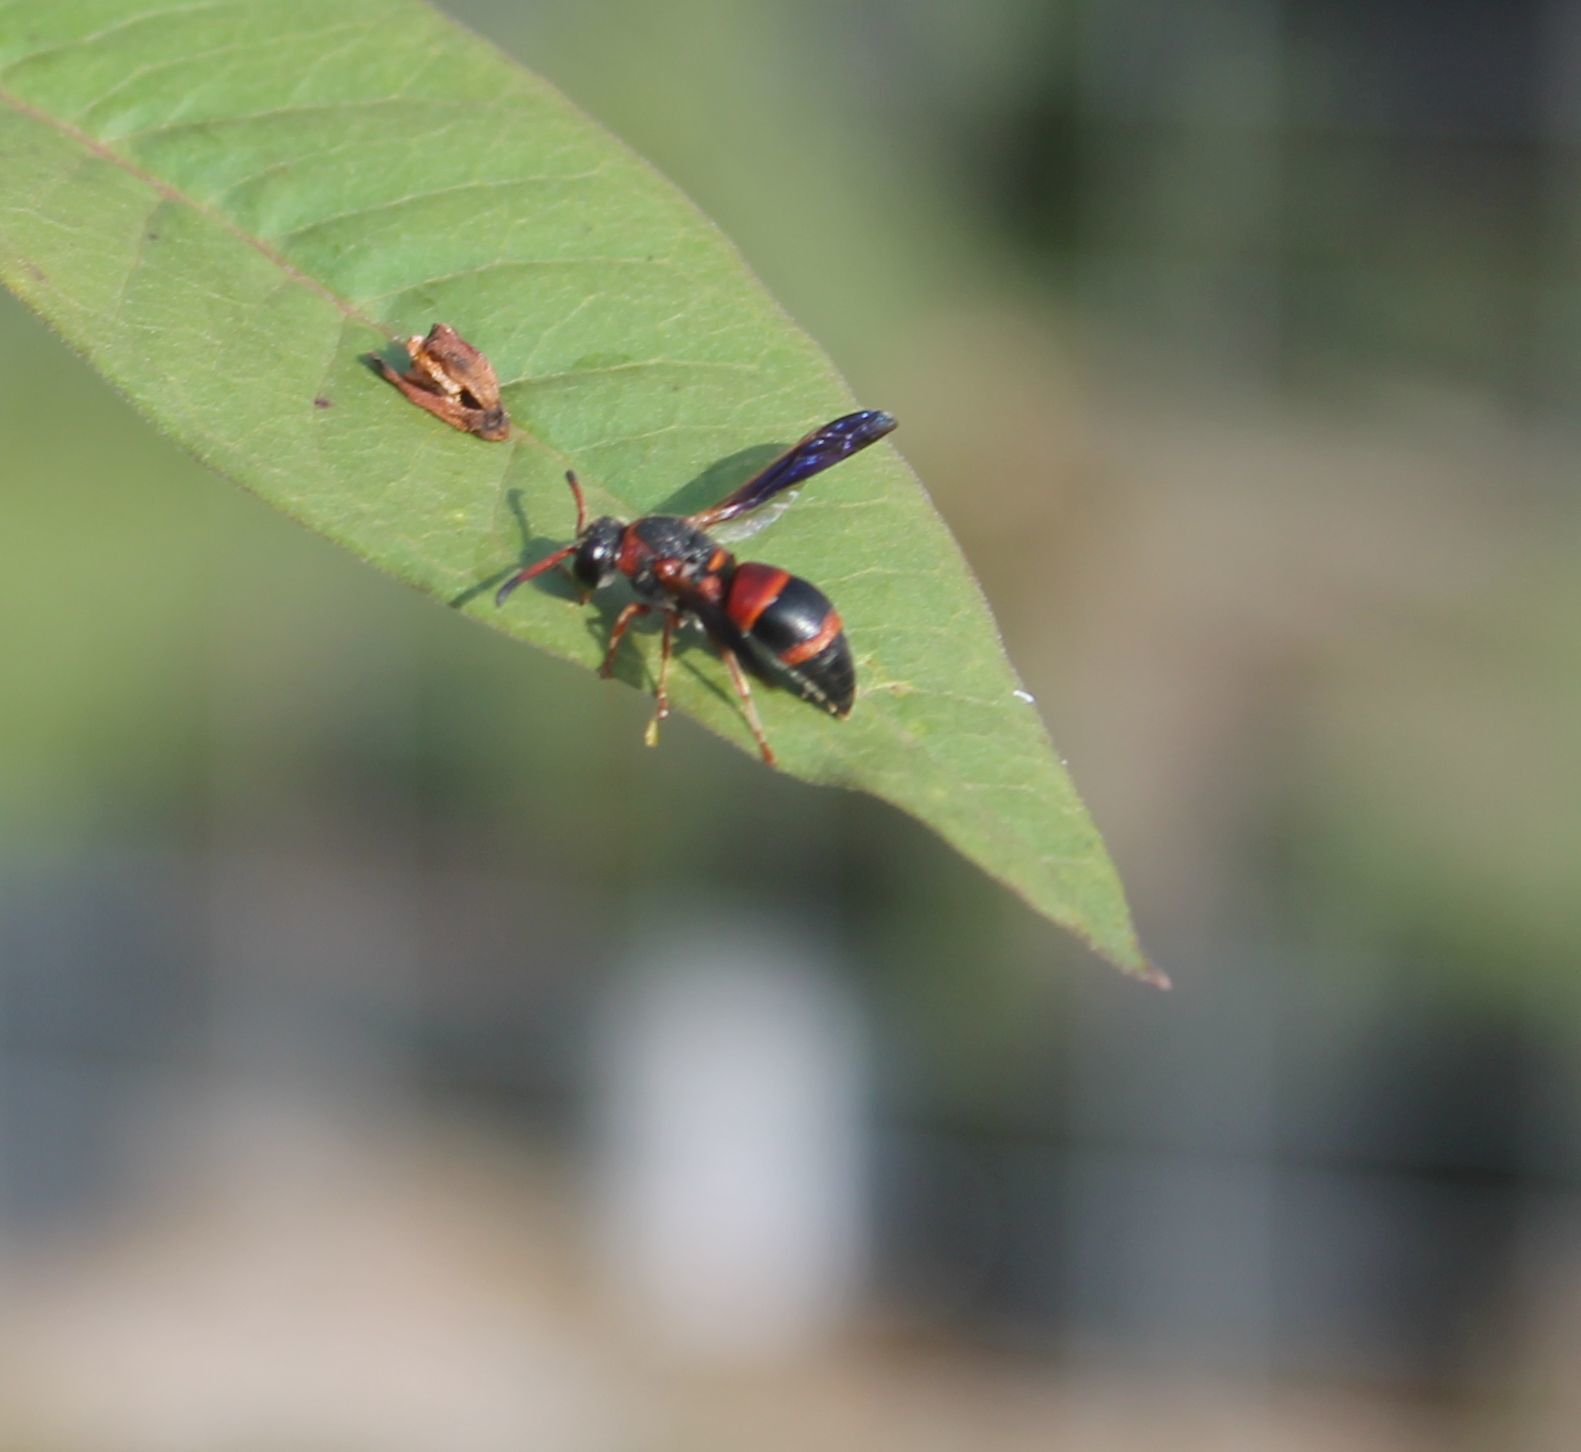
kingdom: Animalia
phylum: Arthropoda
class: Insecta
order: Hymenoptera
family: Eumenidae
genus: Pachodynerus
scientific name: Pachodynerus erynnis
